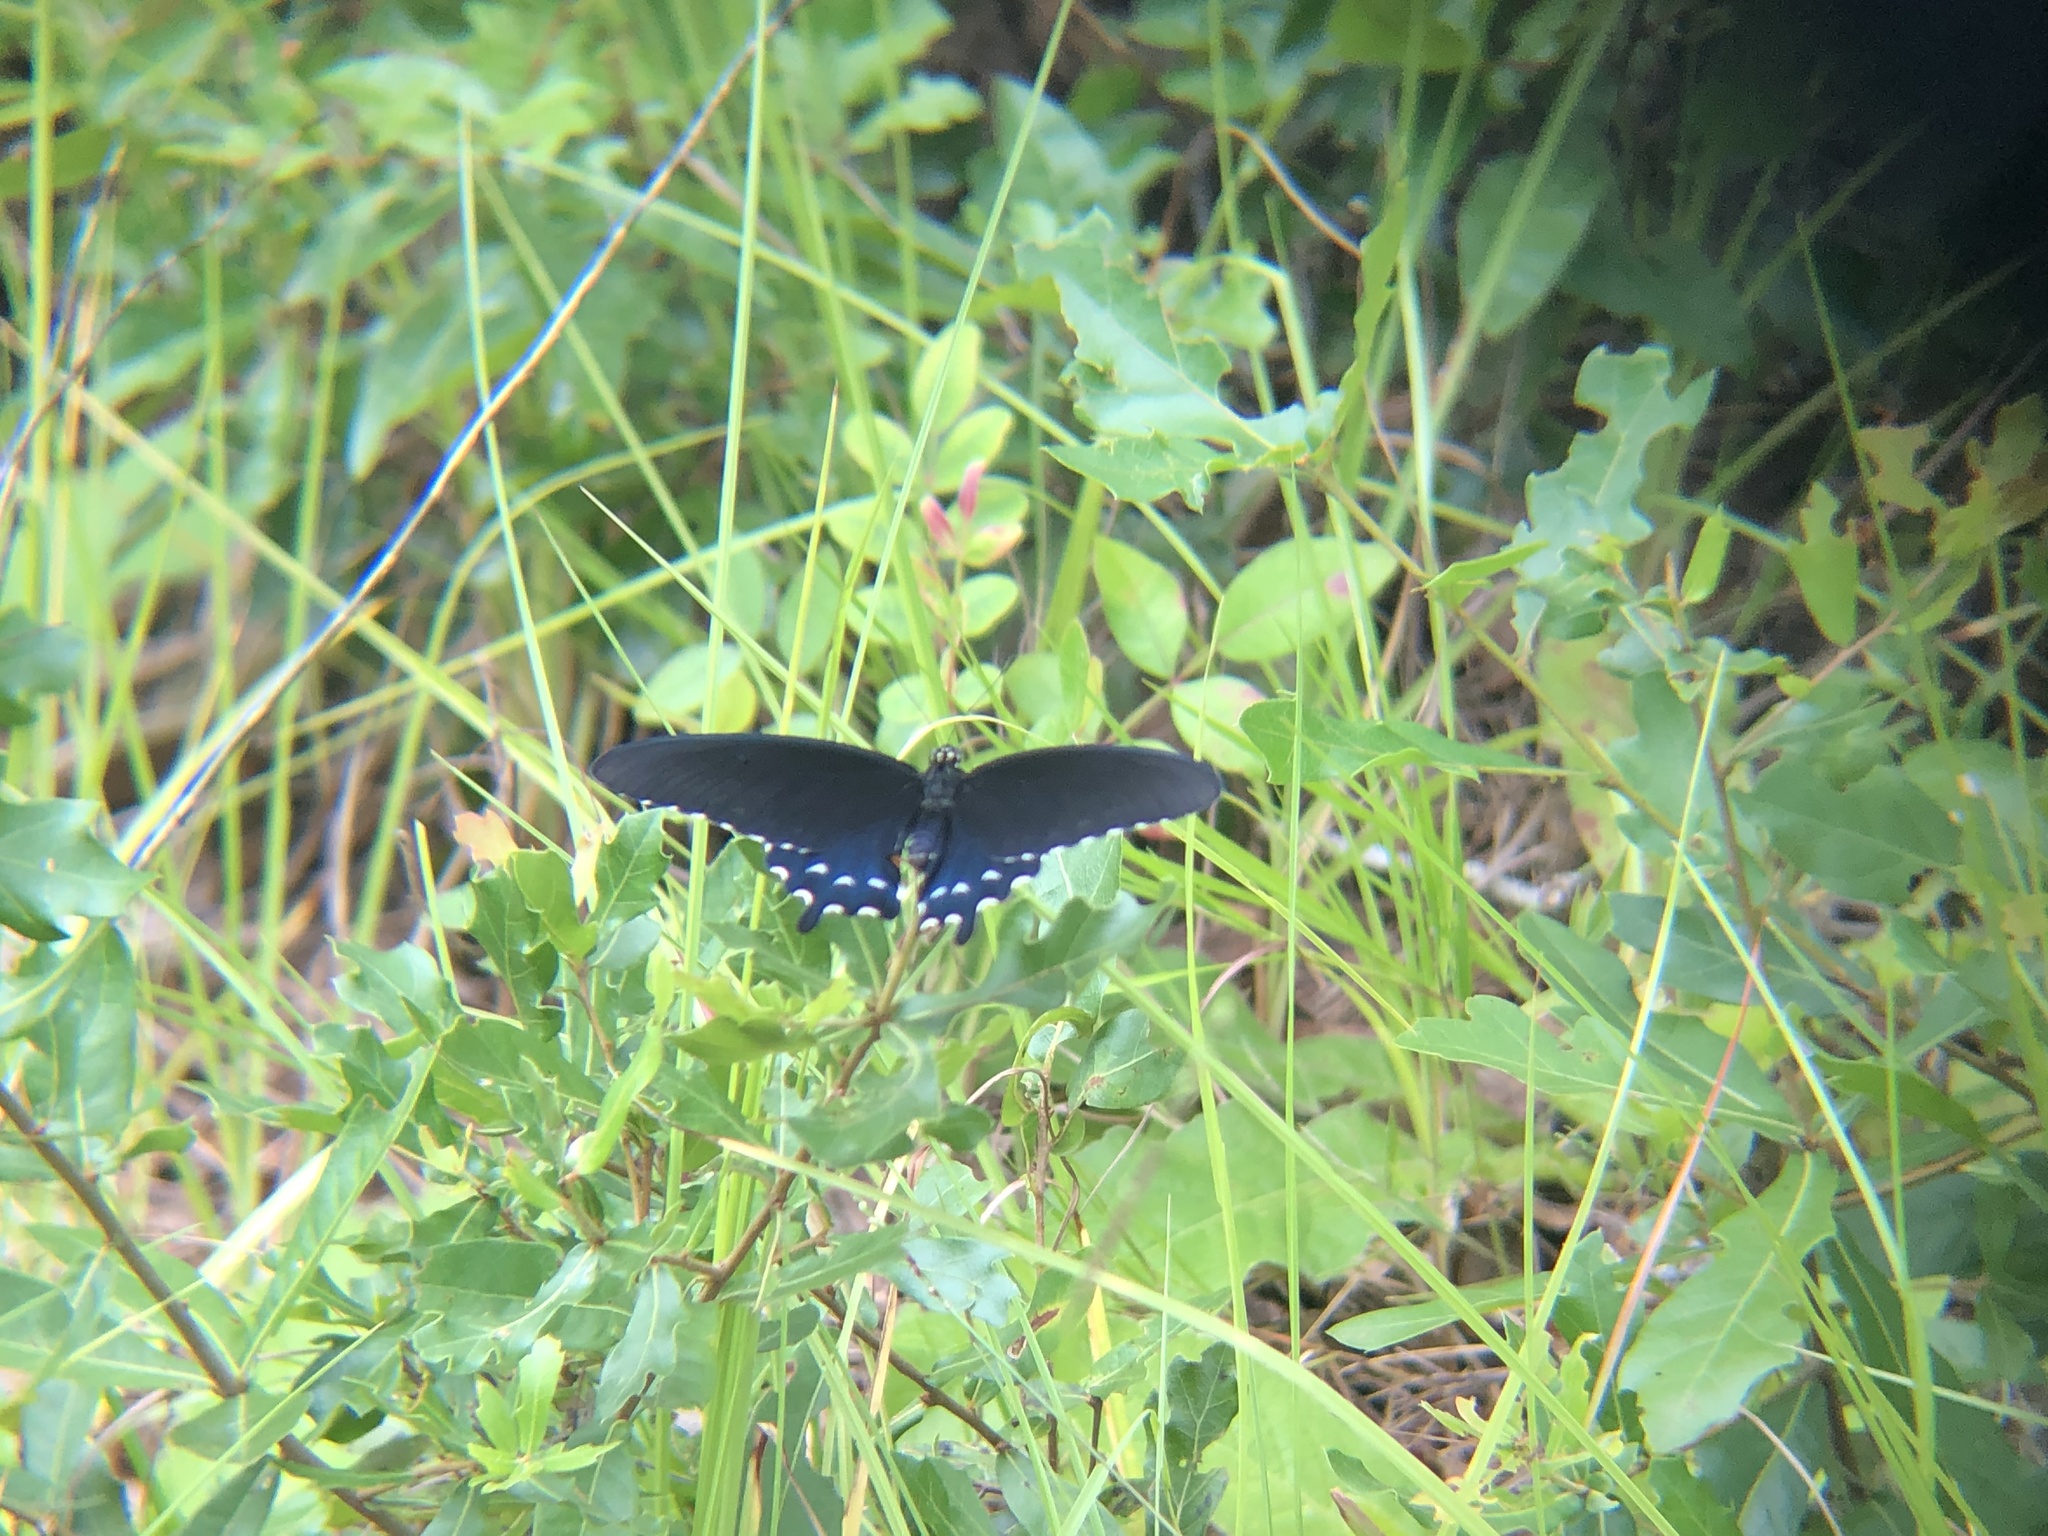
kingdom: Animalia
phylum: Arthropoda
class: Insecta
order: Lepidoptera
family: Papilionidae
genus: Battus
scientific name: Battus philenor
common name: Pipevine swallowtail
